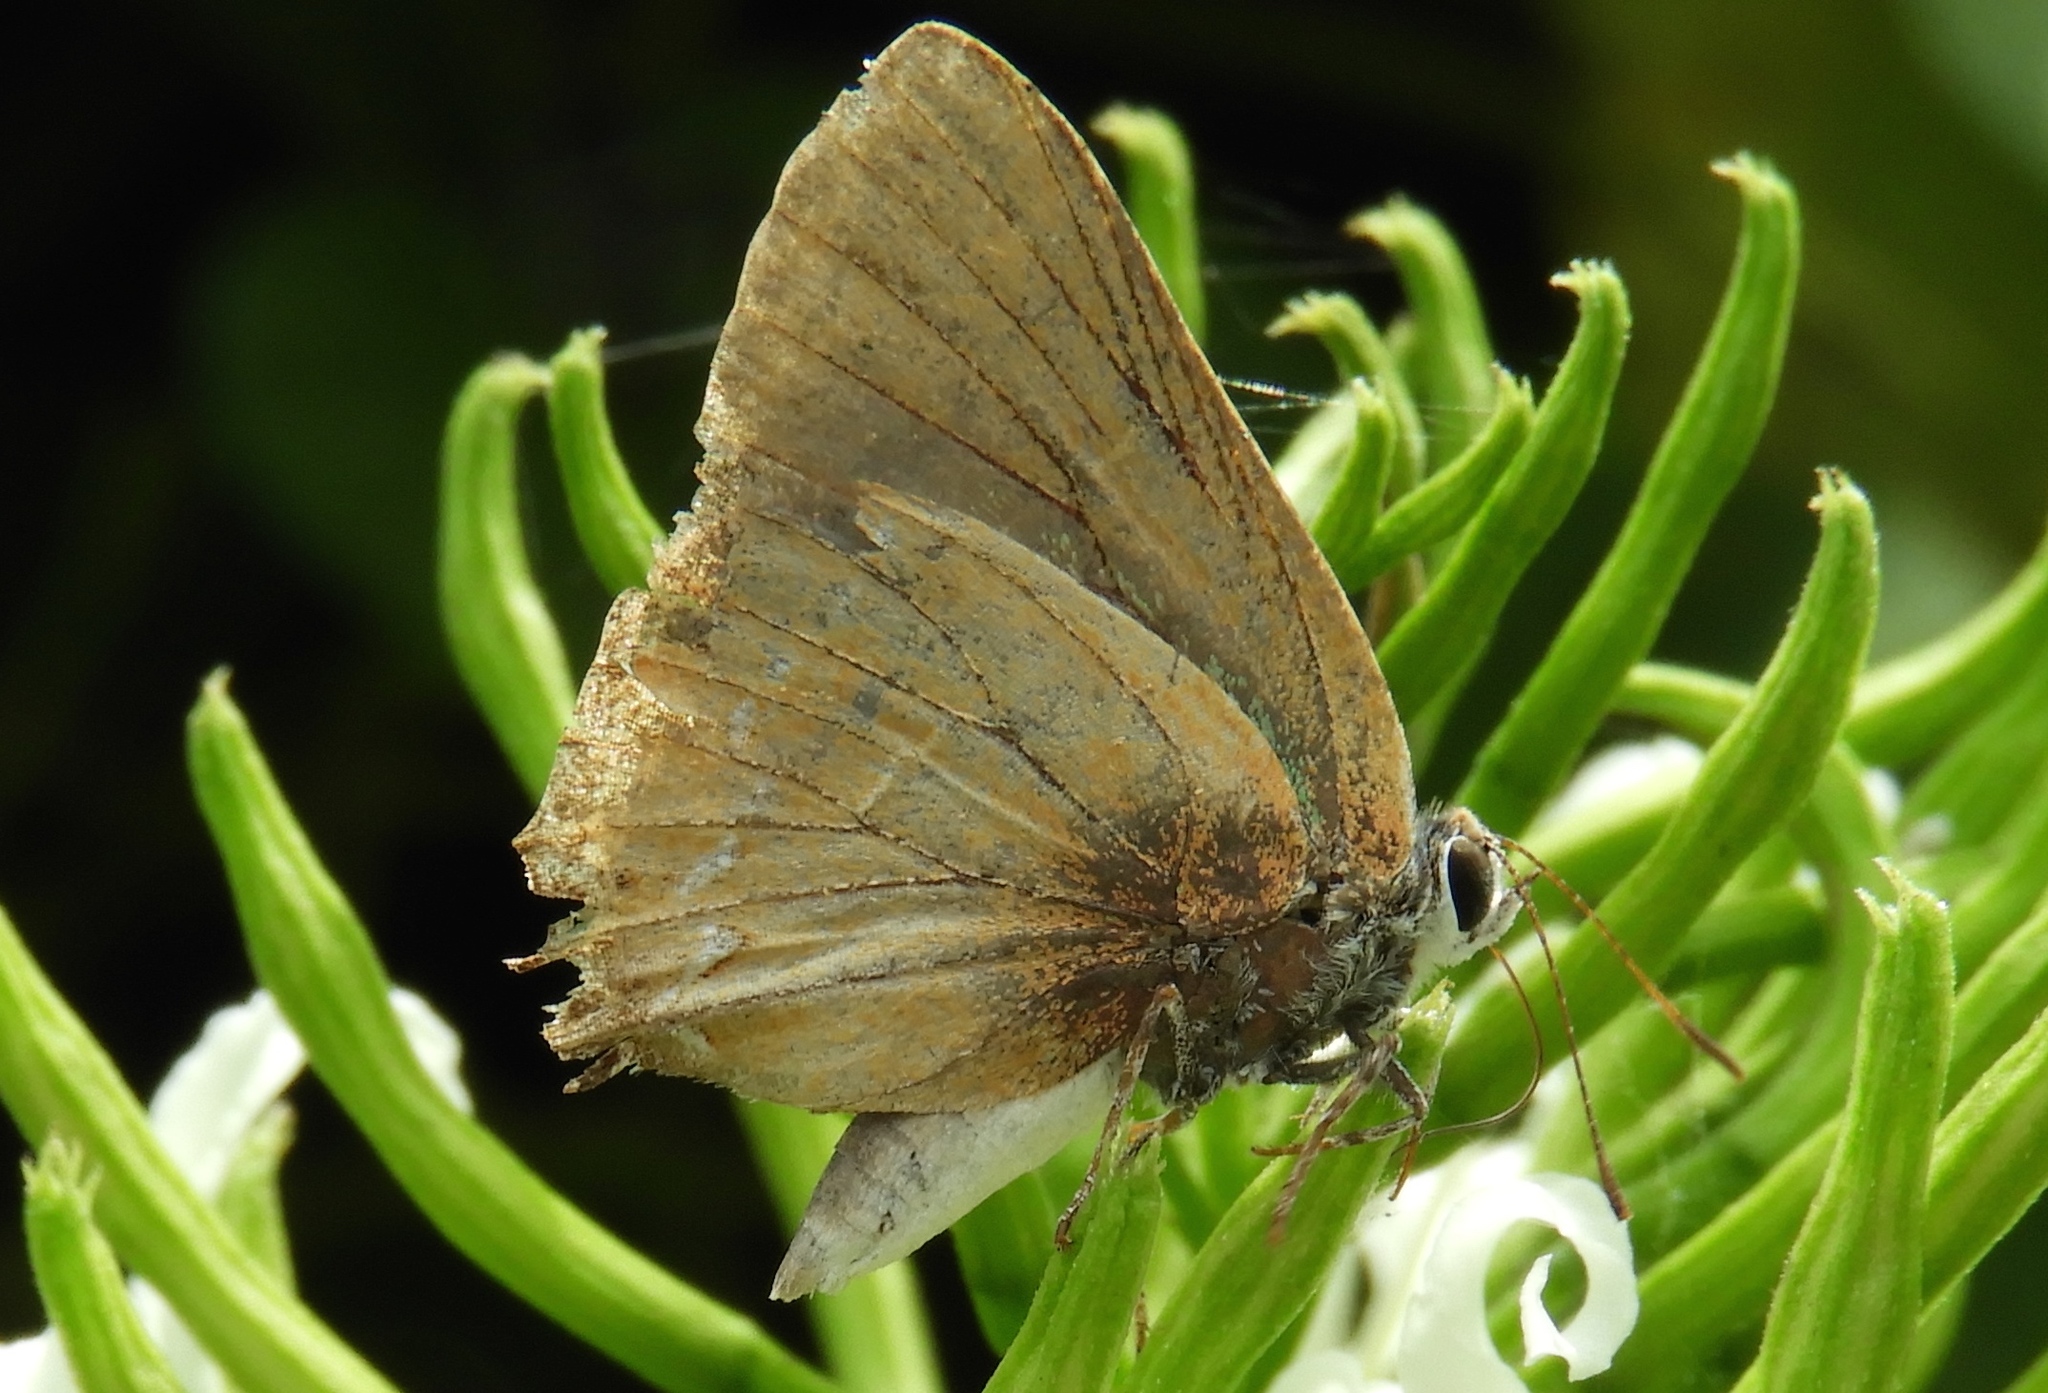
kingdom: Animalia
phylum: Arthropoda
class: Insecta
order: Lepidoptera
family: Lycaenidae
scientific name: Lycaenidae
